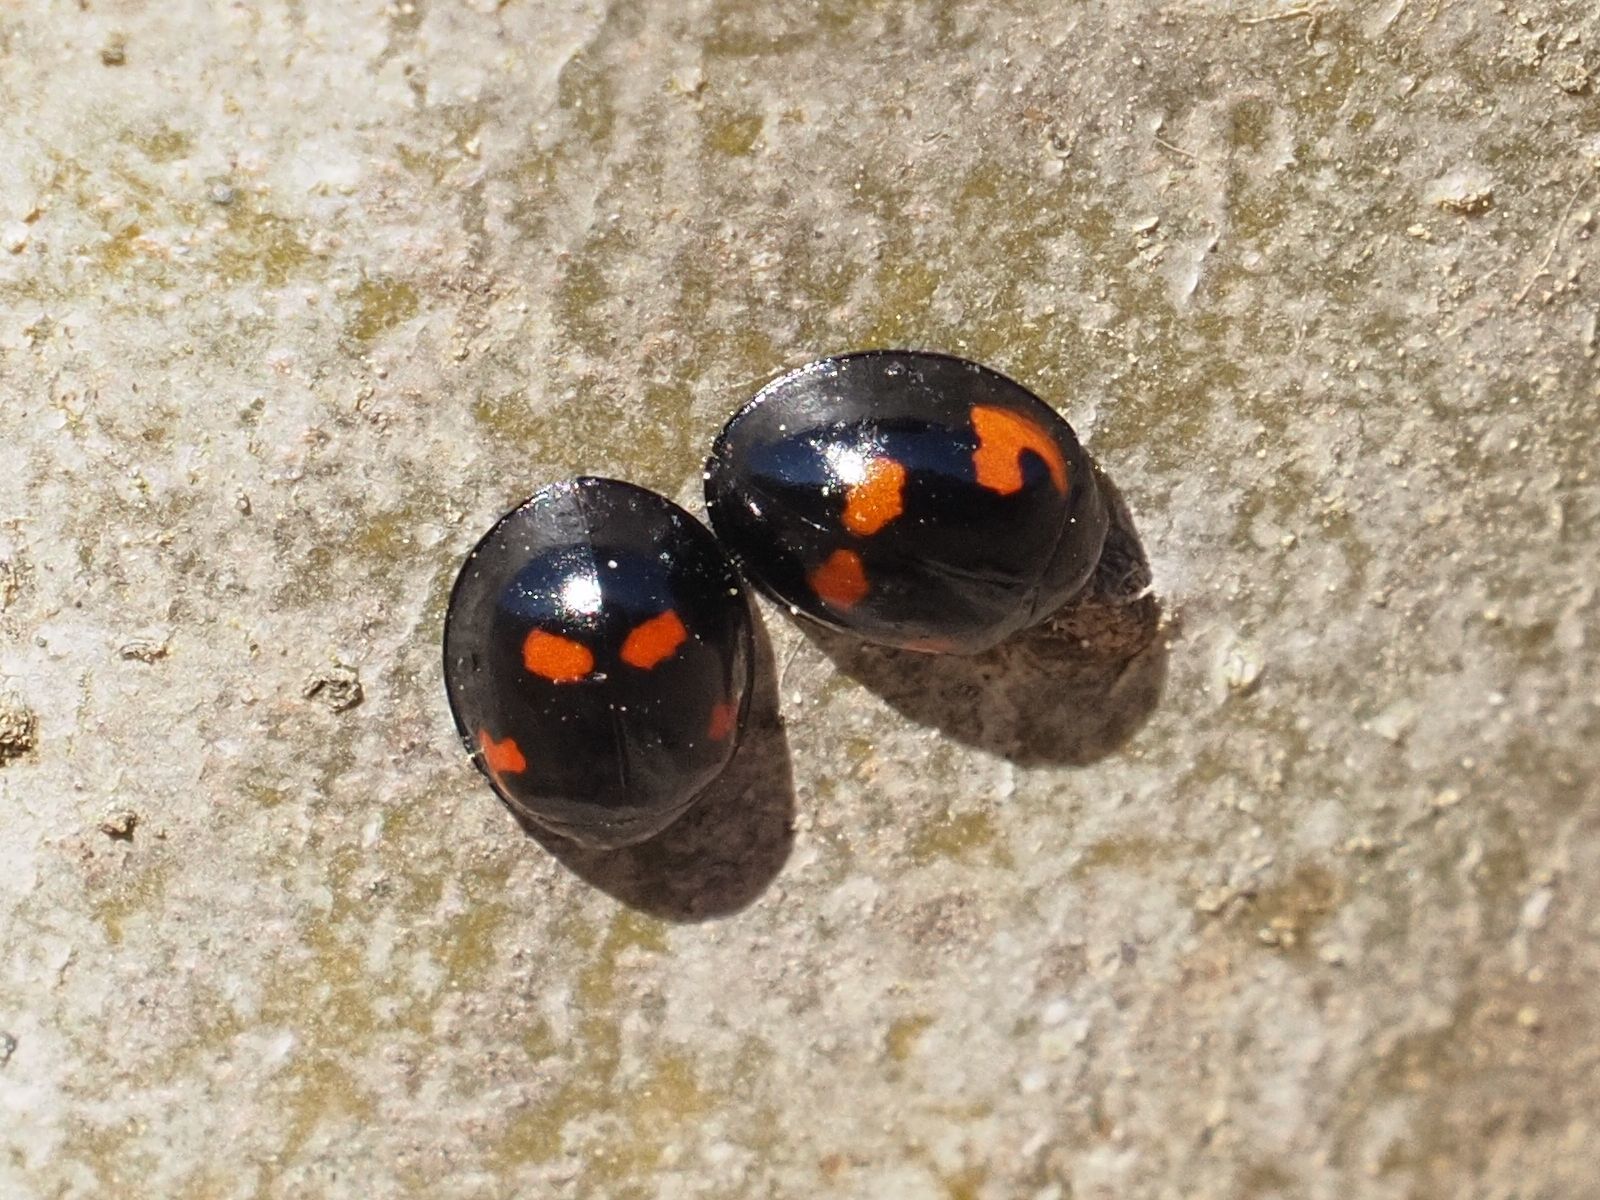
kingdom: Animalia
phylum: Arthropoda
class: Insecta
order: Coleoptera
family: Coccinellidae
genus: Brumus
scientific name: Brumus quadripustulatus
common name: Ladybird beetle
